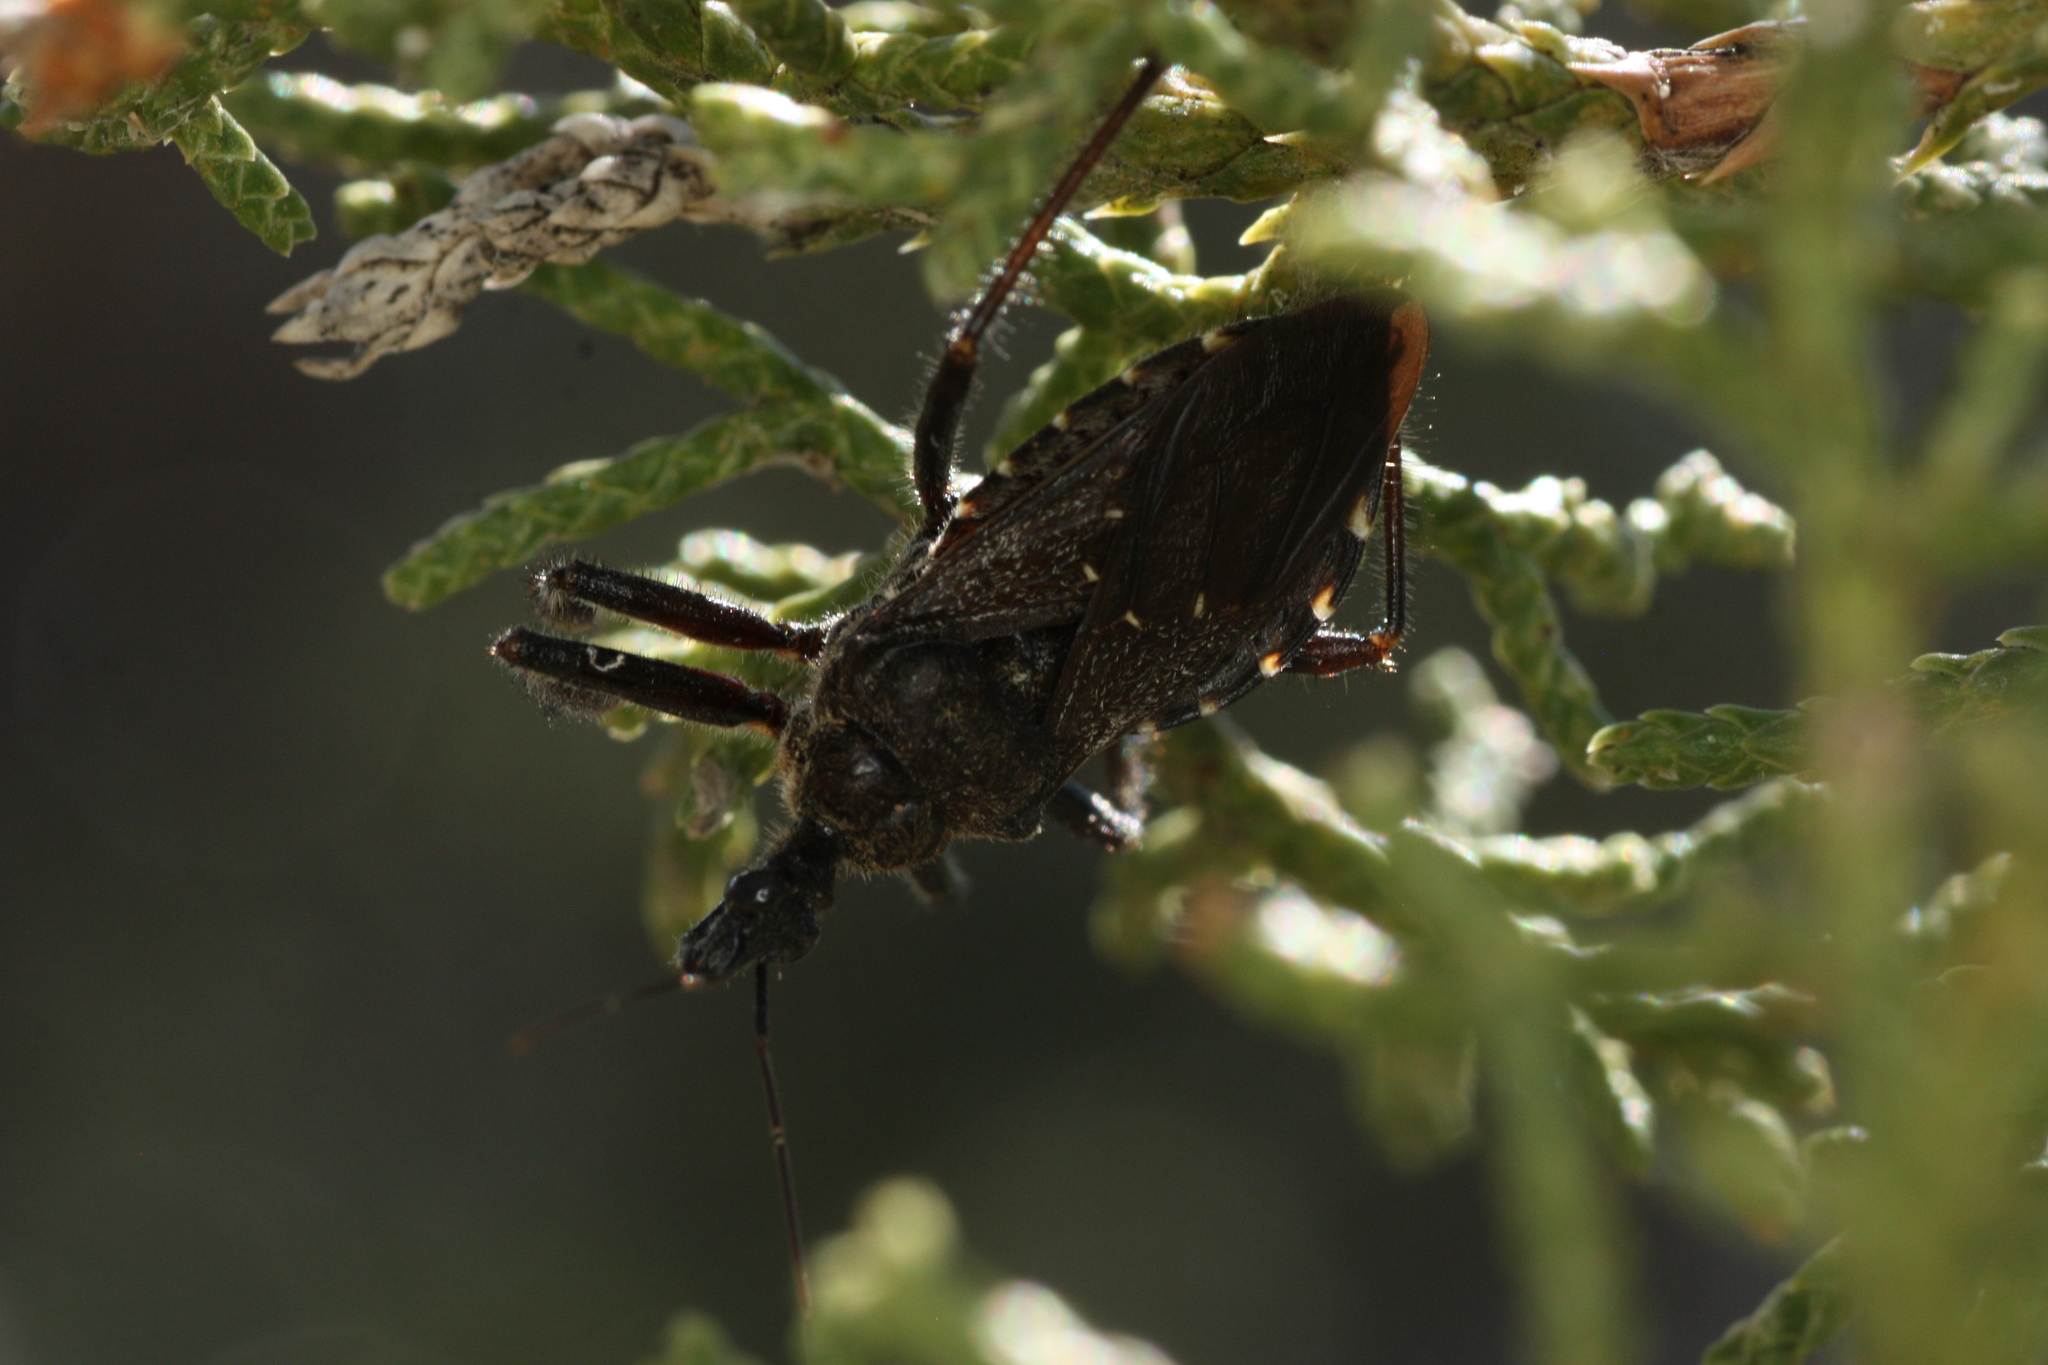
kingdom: Animalia
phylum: Arthropoda
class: Insecta
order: Hemiptera
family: Reduviidae
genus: Apiomerus
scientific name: Apiomerus longispinis
